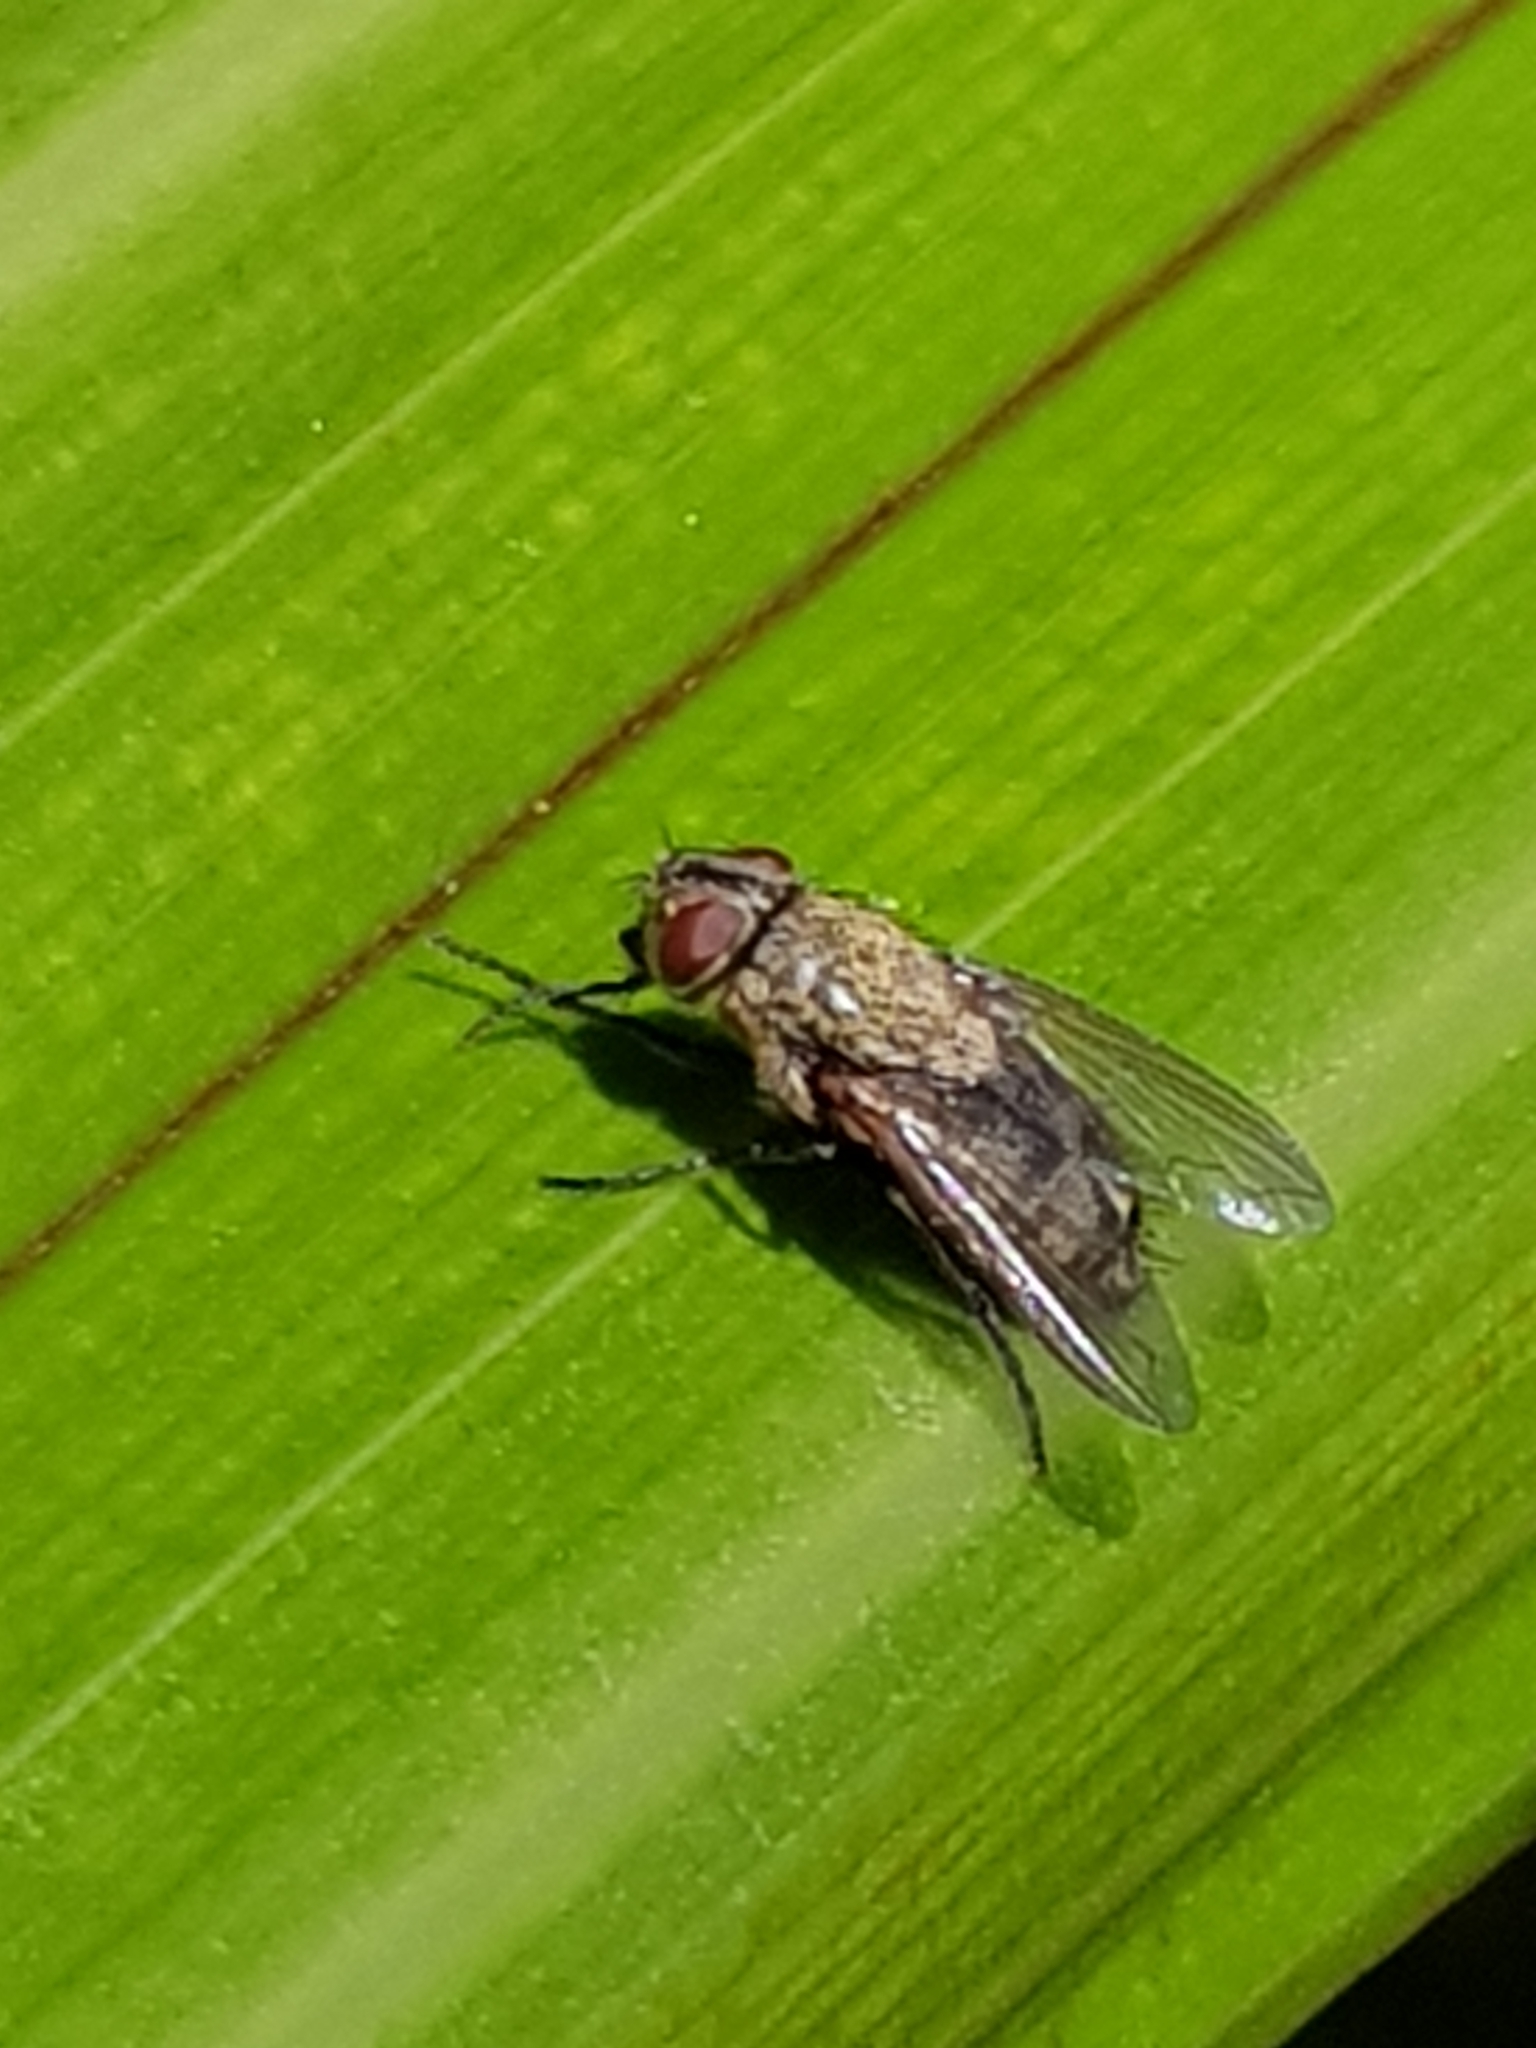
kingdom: Animalia
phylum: Arthropoda
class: Insecta
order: Diptera
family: Polleniidae
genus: Pollenia
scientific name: Pollenia pediculata
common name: Tufted clusterfly
